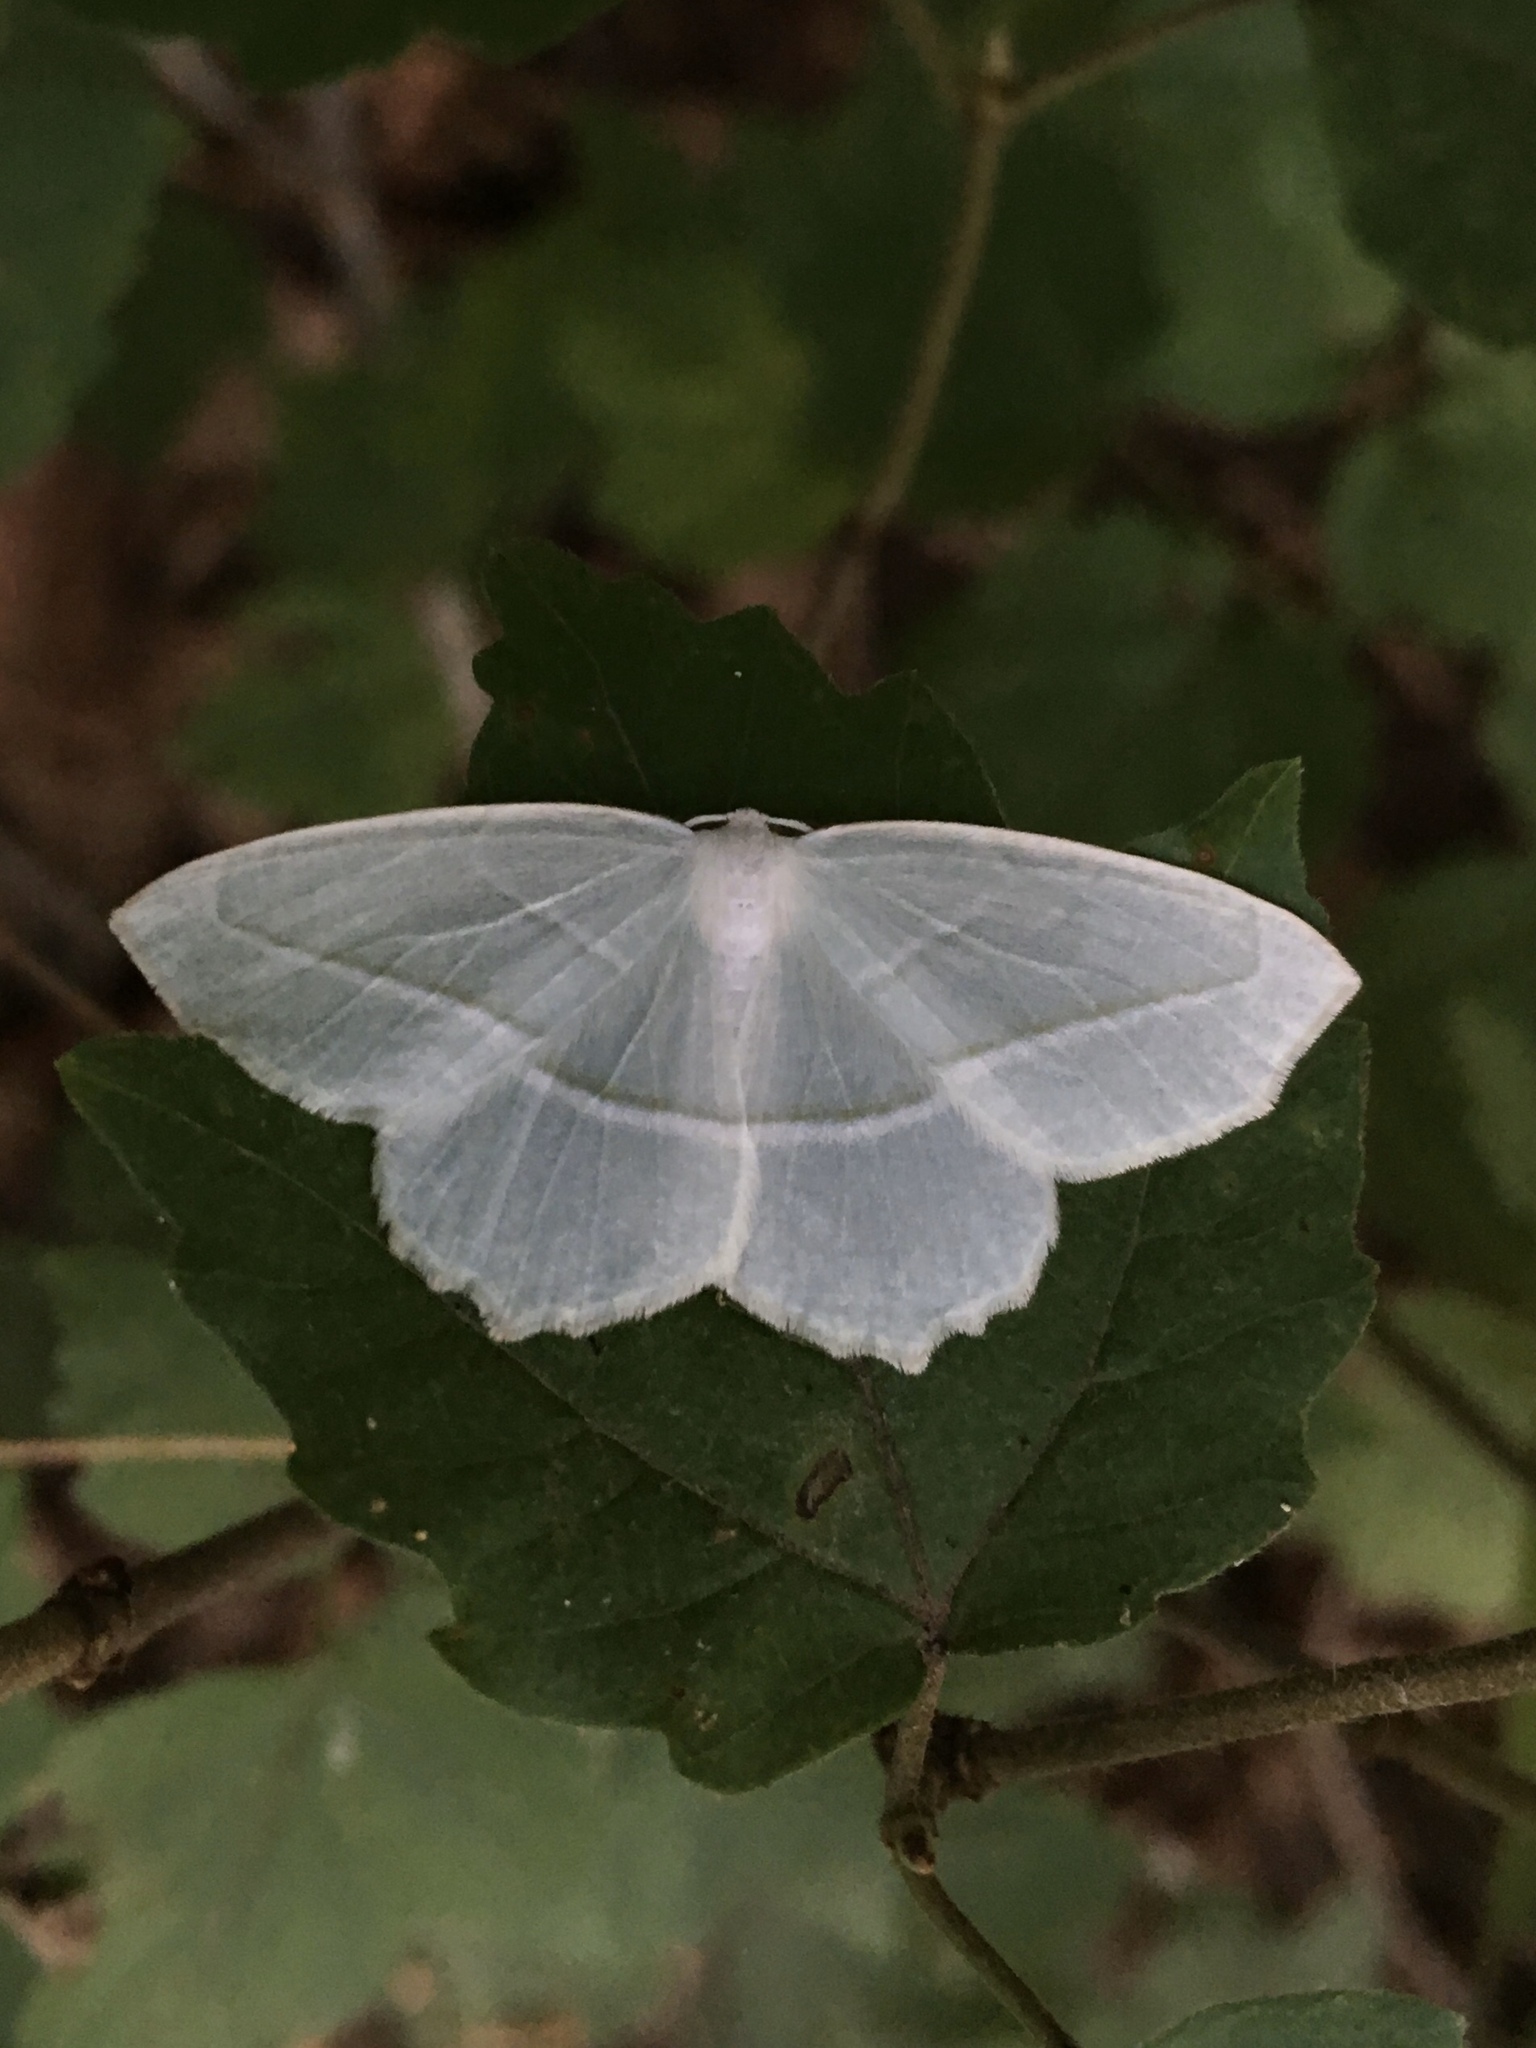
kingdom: Animalia
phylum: Arthropoda
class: Insecta
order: Lepidoptera
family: Geometridae
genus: Campaea
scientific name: Campaea perlata
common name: Fringed looper
